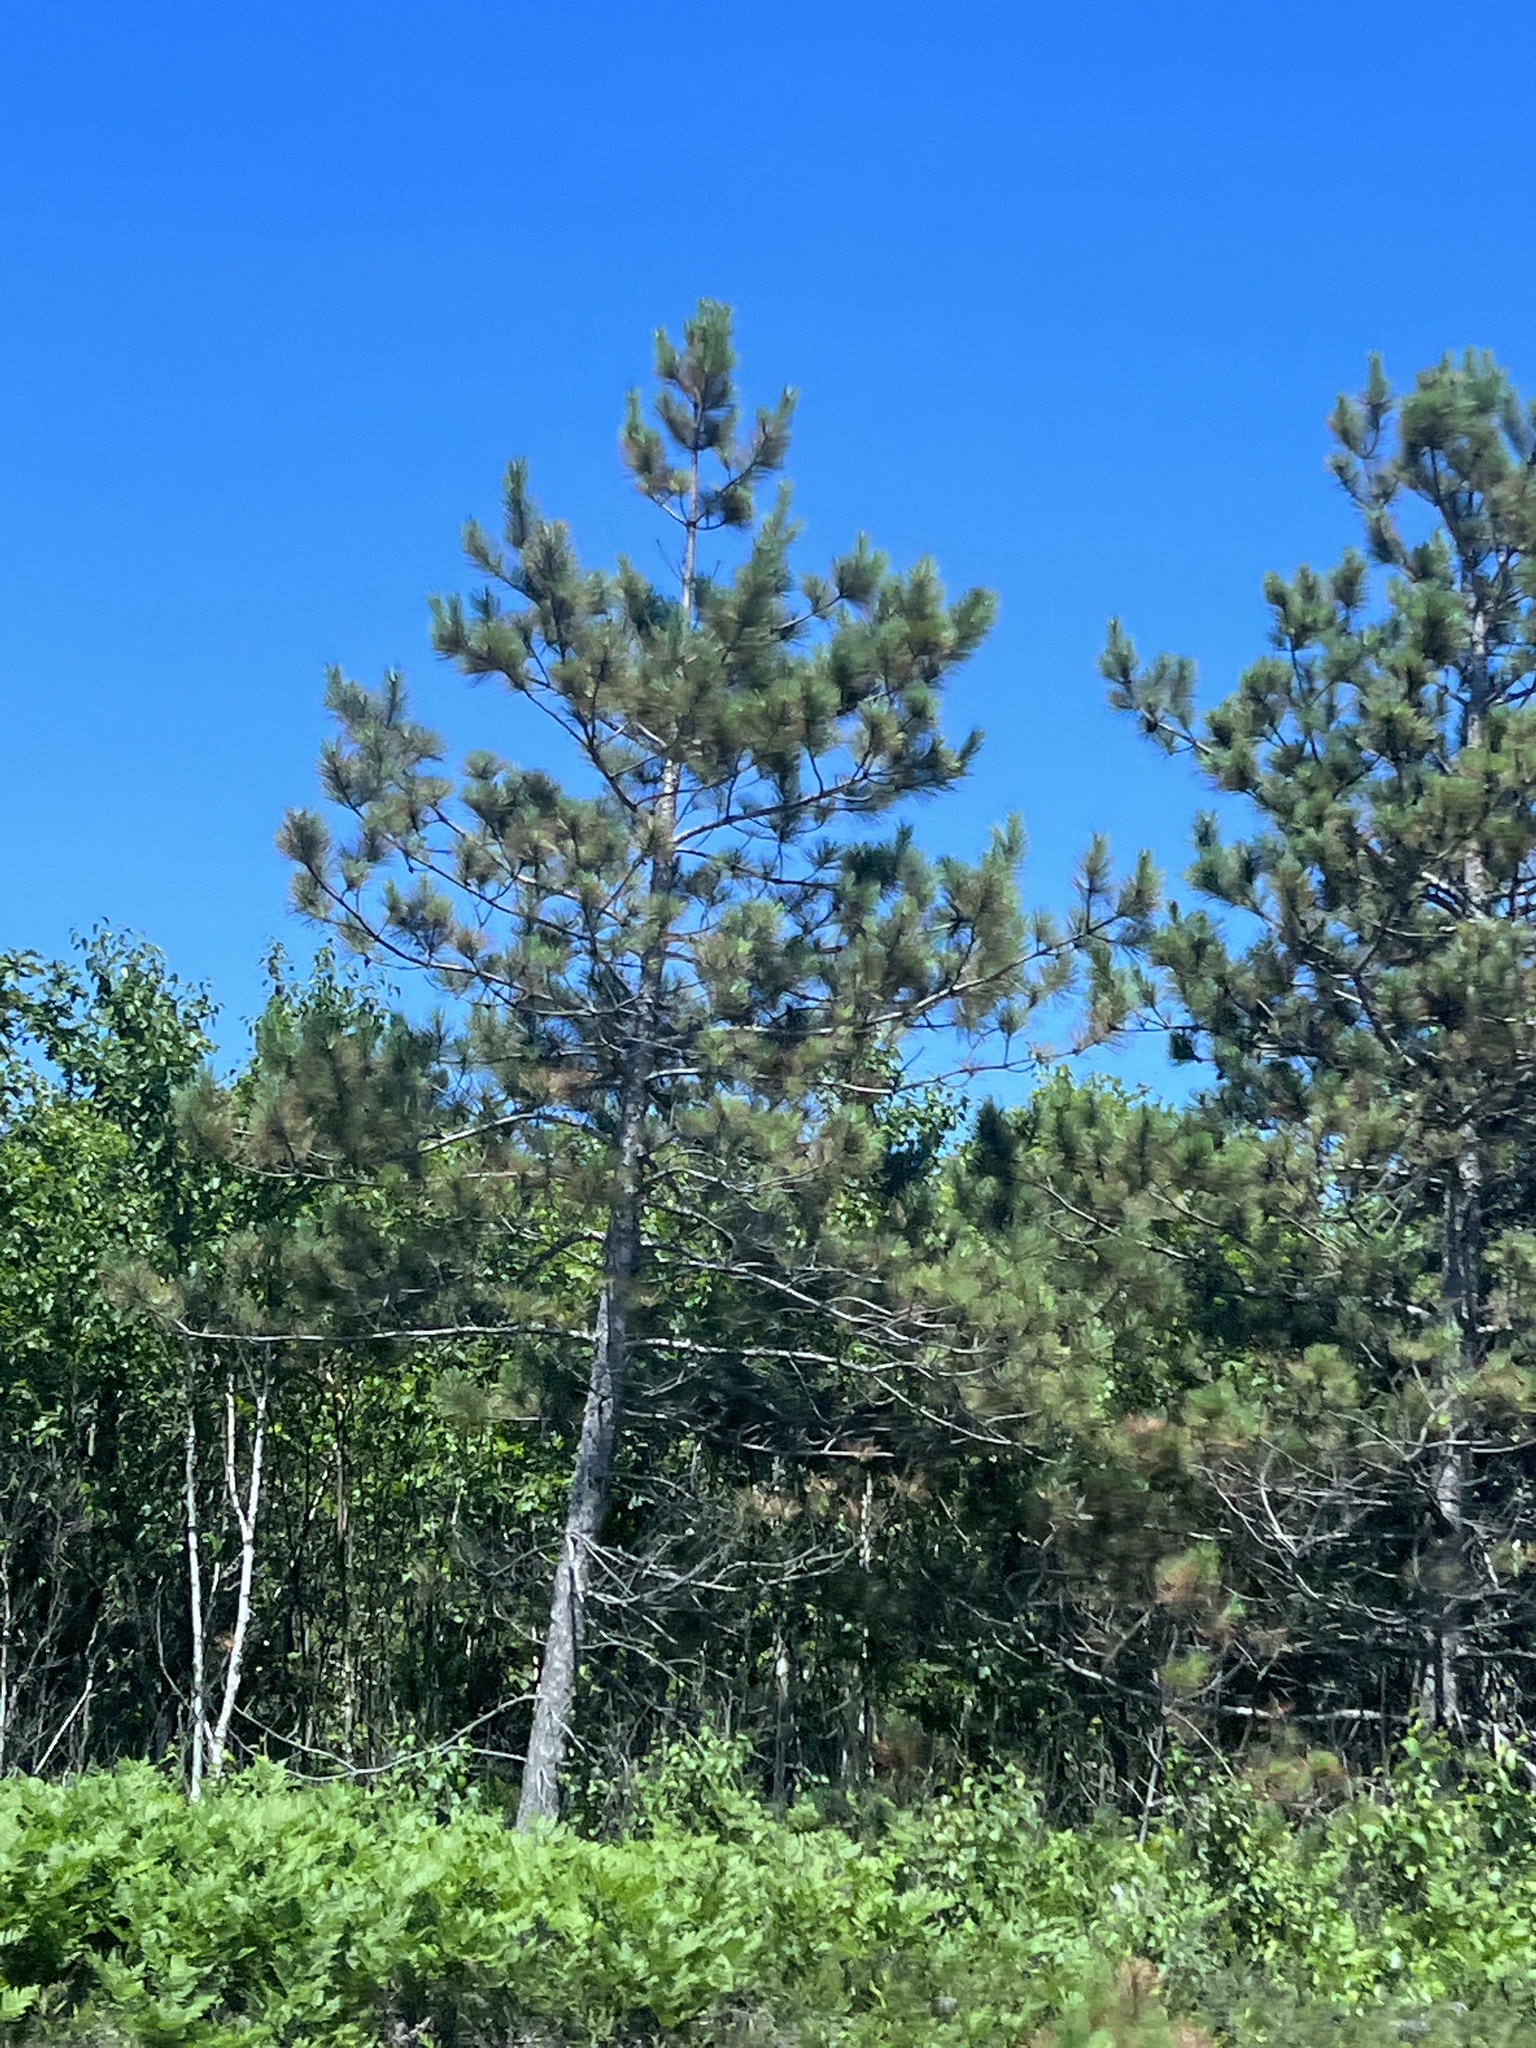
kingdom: Plantae
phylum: Tracheophyta
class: Pinopsida
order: Pinales
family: Pinaceae
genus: Pinus
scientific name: Pinus resinosa
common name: Norway pine
